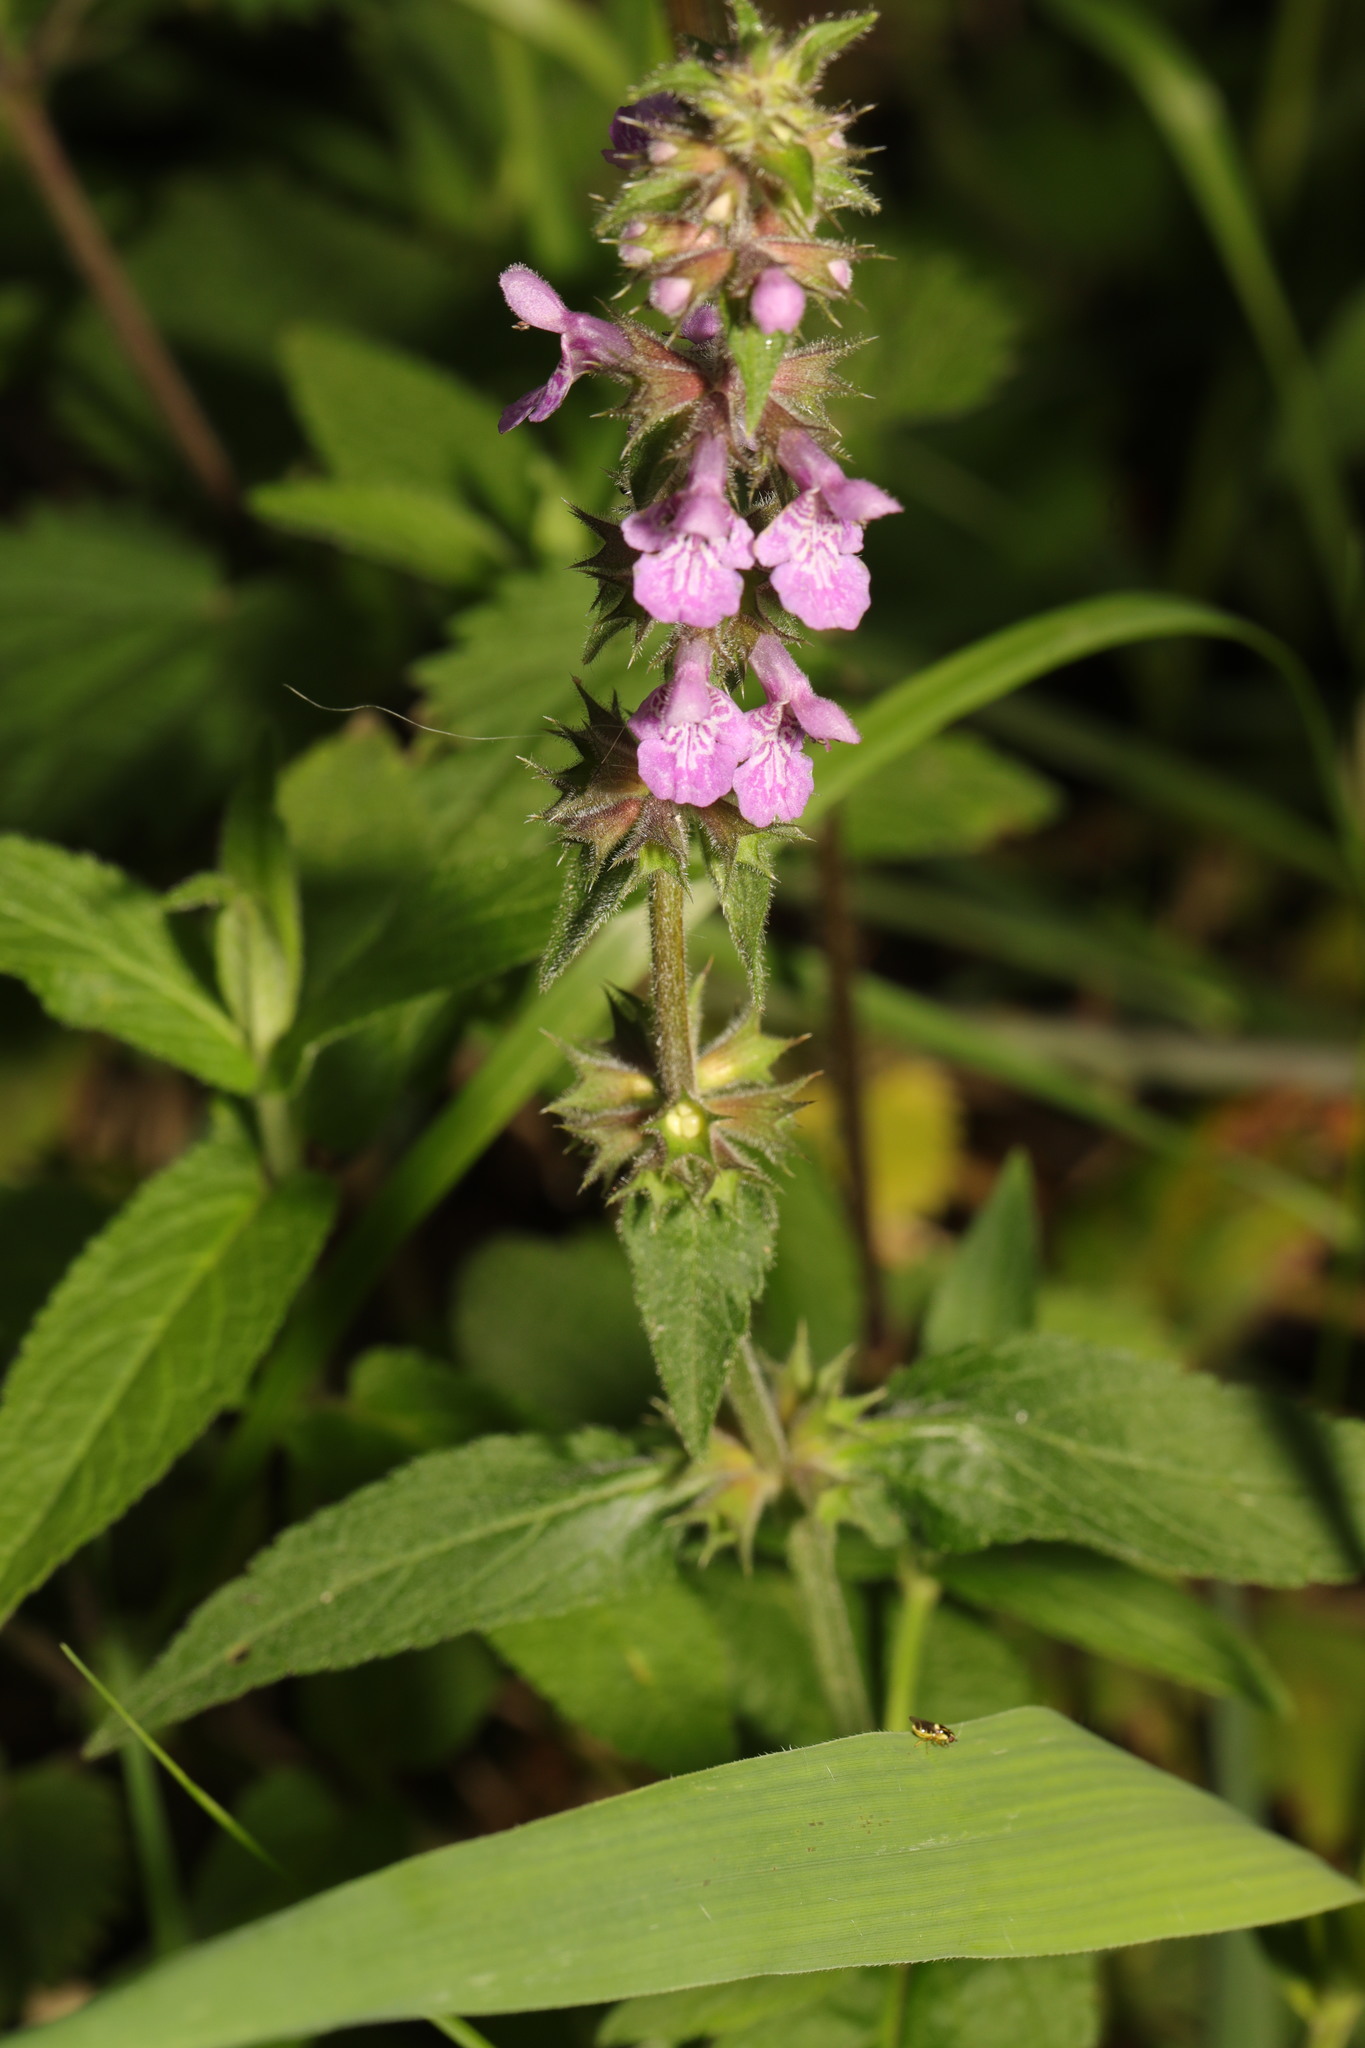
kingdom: Plantae
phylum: Tracheophyta
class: Magnoliopsida
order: Lamiales
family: Lamiaceae
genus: Stachys
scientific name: Stachys palustris
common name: Marsh woundwort
